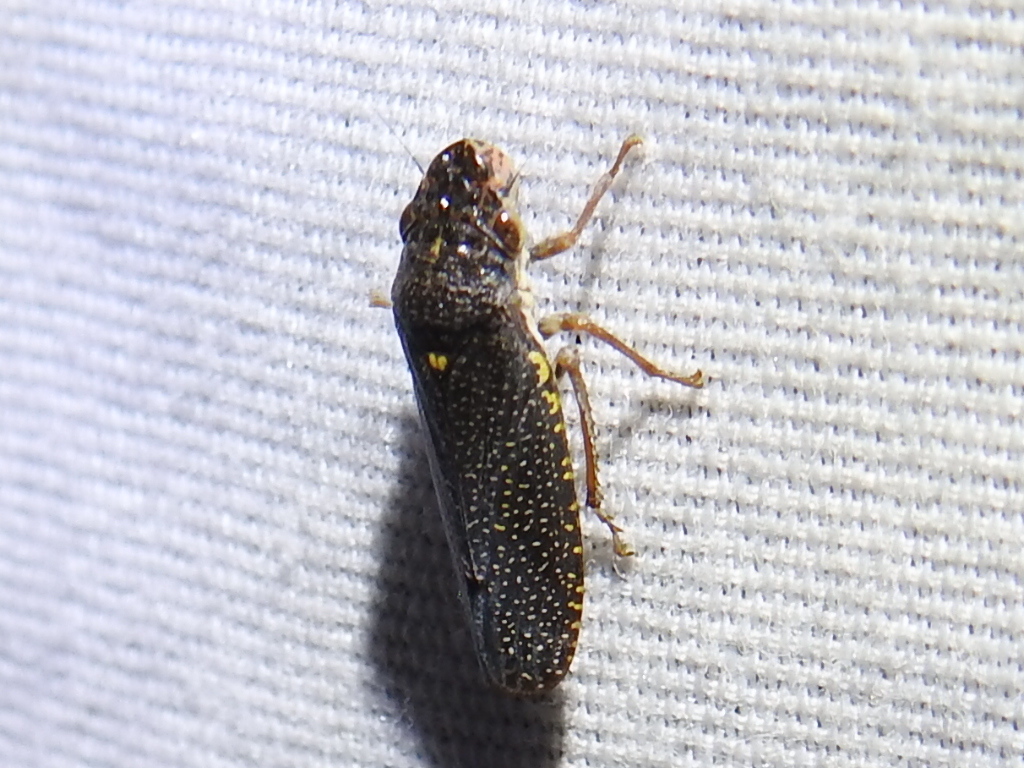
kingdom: Animalia
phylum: Arthropoda
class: Insecta
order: Hemiptera
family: Cicadellidae
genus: Paraulacizes
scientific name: Paraulacizes irrorata
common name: Speckled sharpshooter
